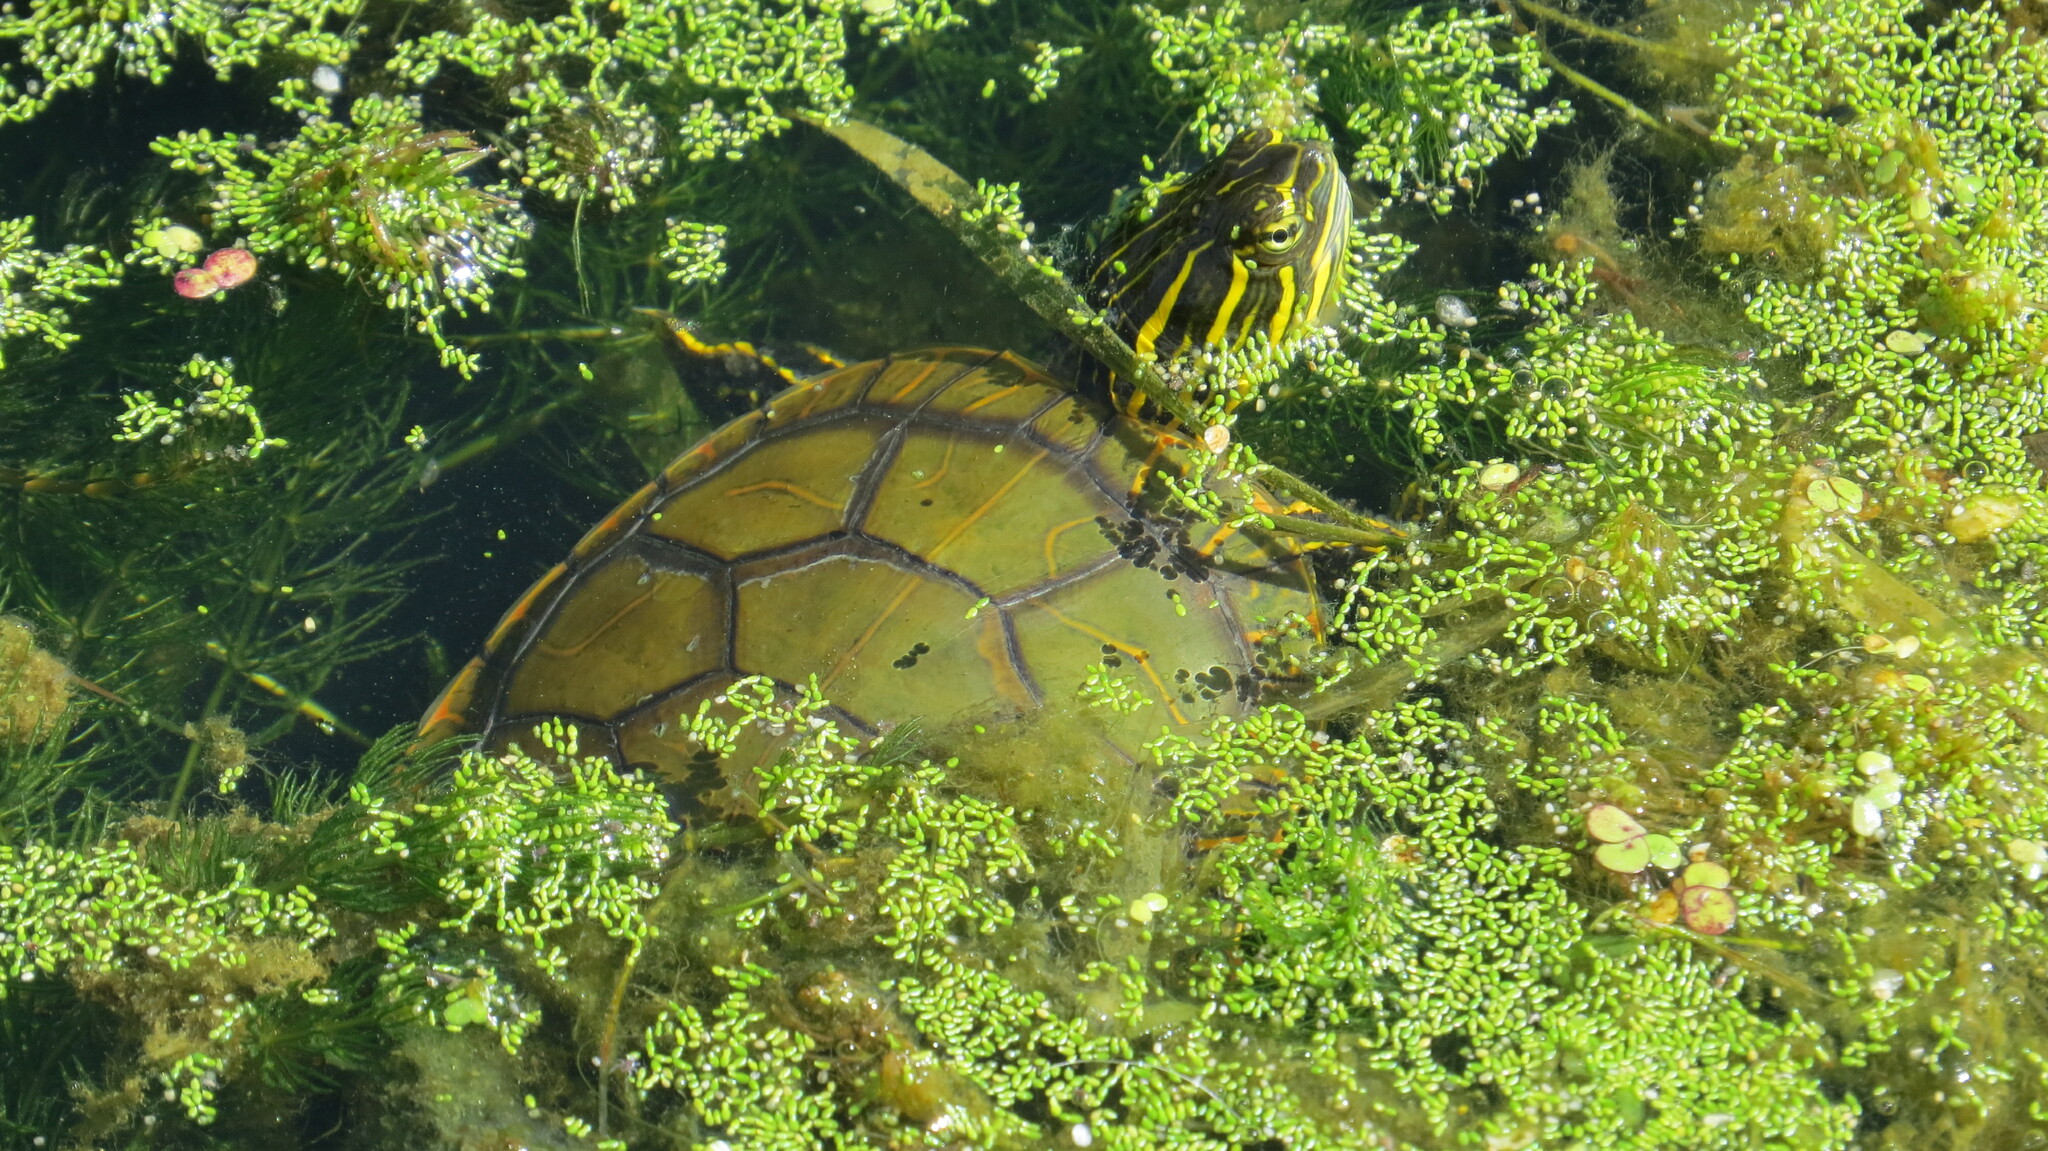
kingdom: Animalia
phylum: Chordata
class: Testudines
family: Emydidae
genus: Chrysemys
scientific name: Chrysemys picta
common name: Painted turtle
